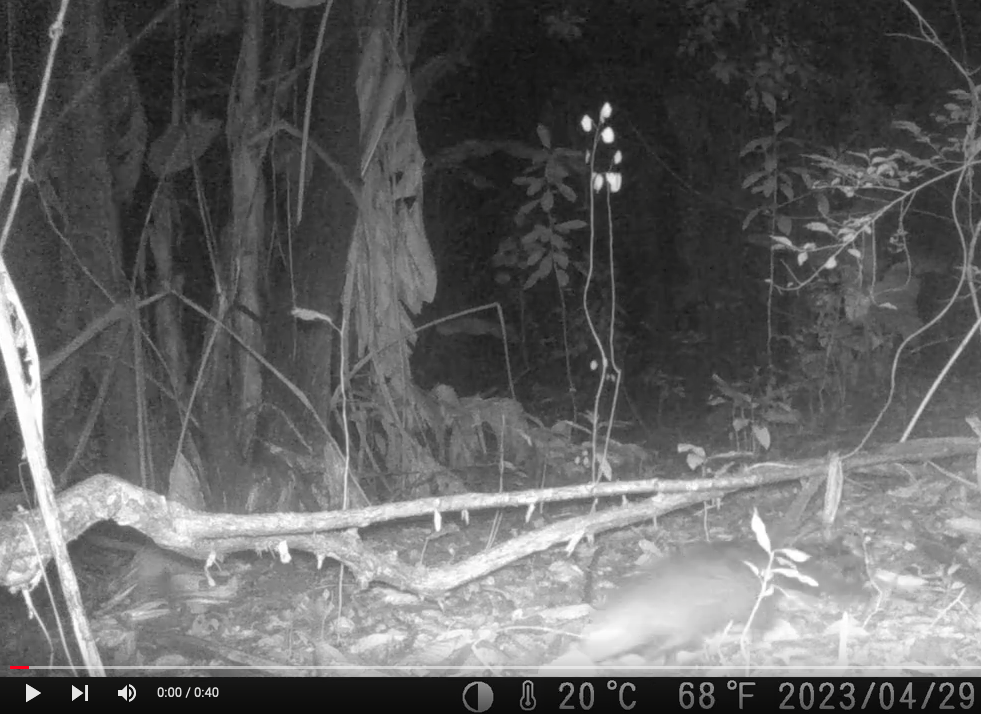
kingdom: Animalia
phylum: Chordata
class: Mammalia
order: Carnivora
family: Herpestidae
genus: Atilax
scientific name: Atilax paludinosus
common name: Marsh mongoose
